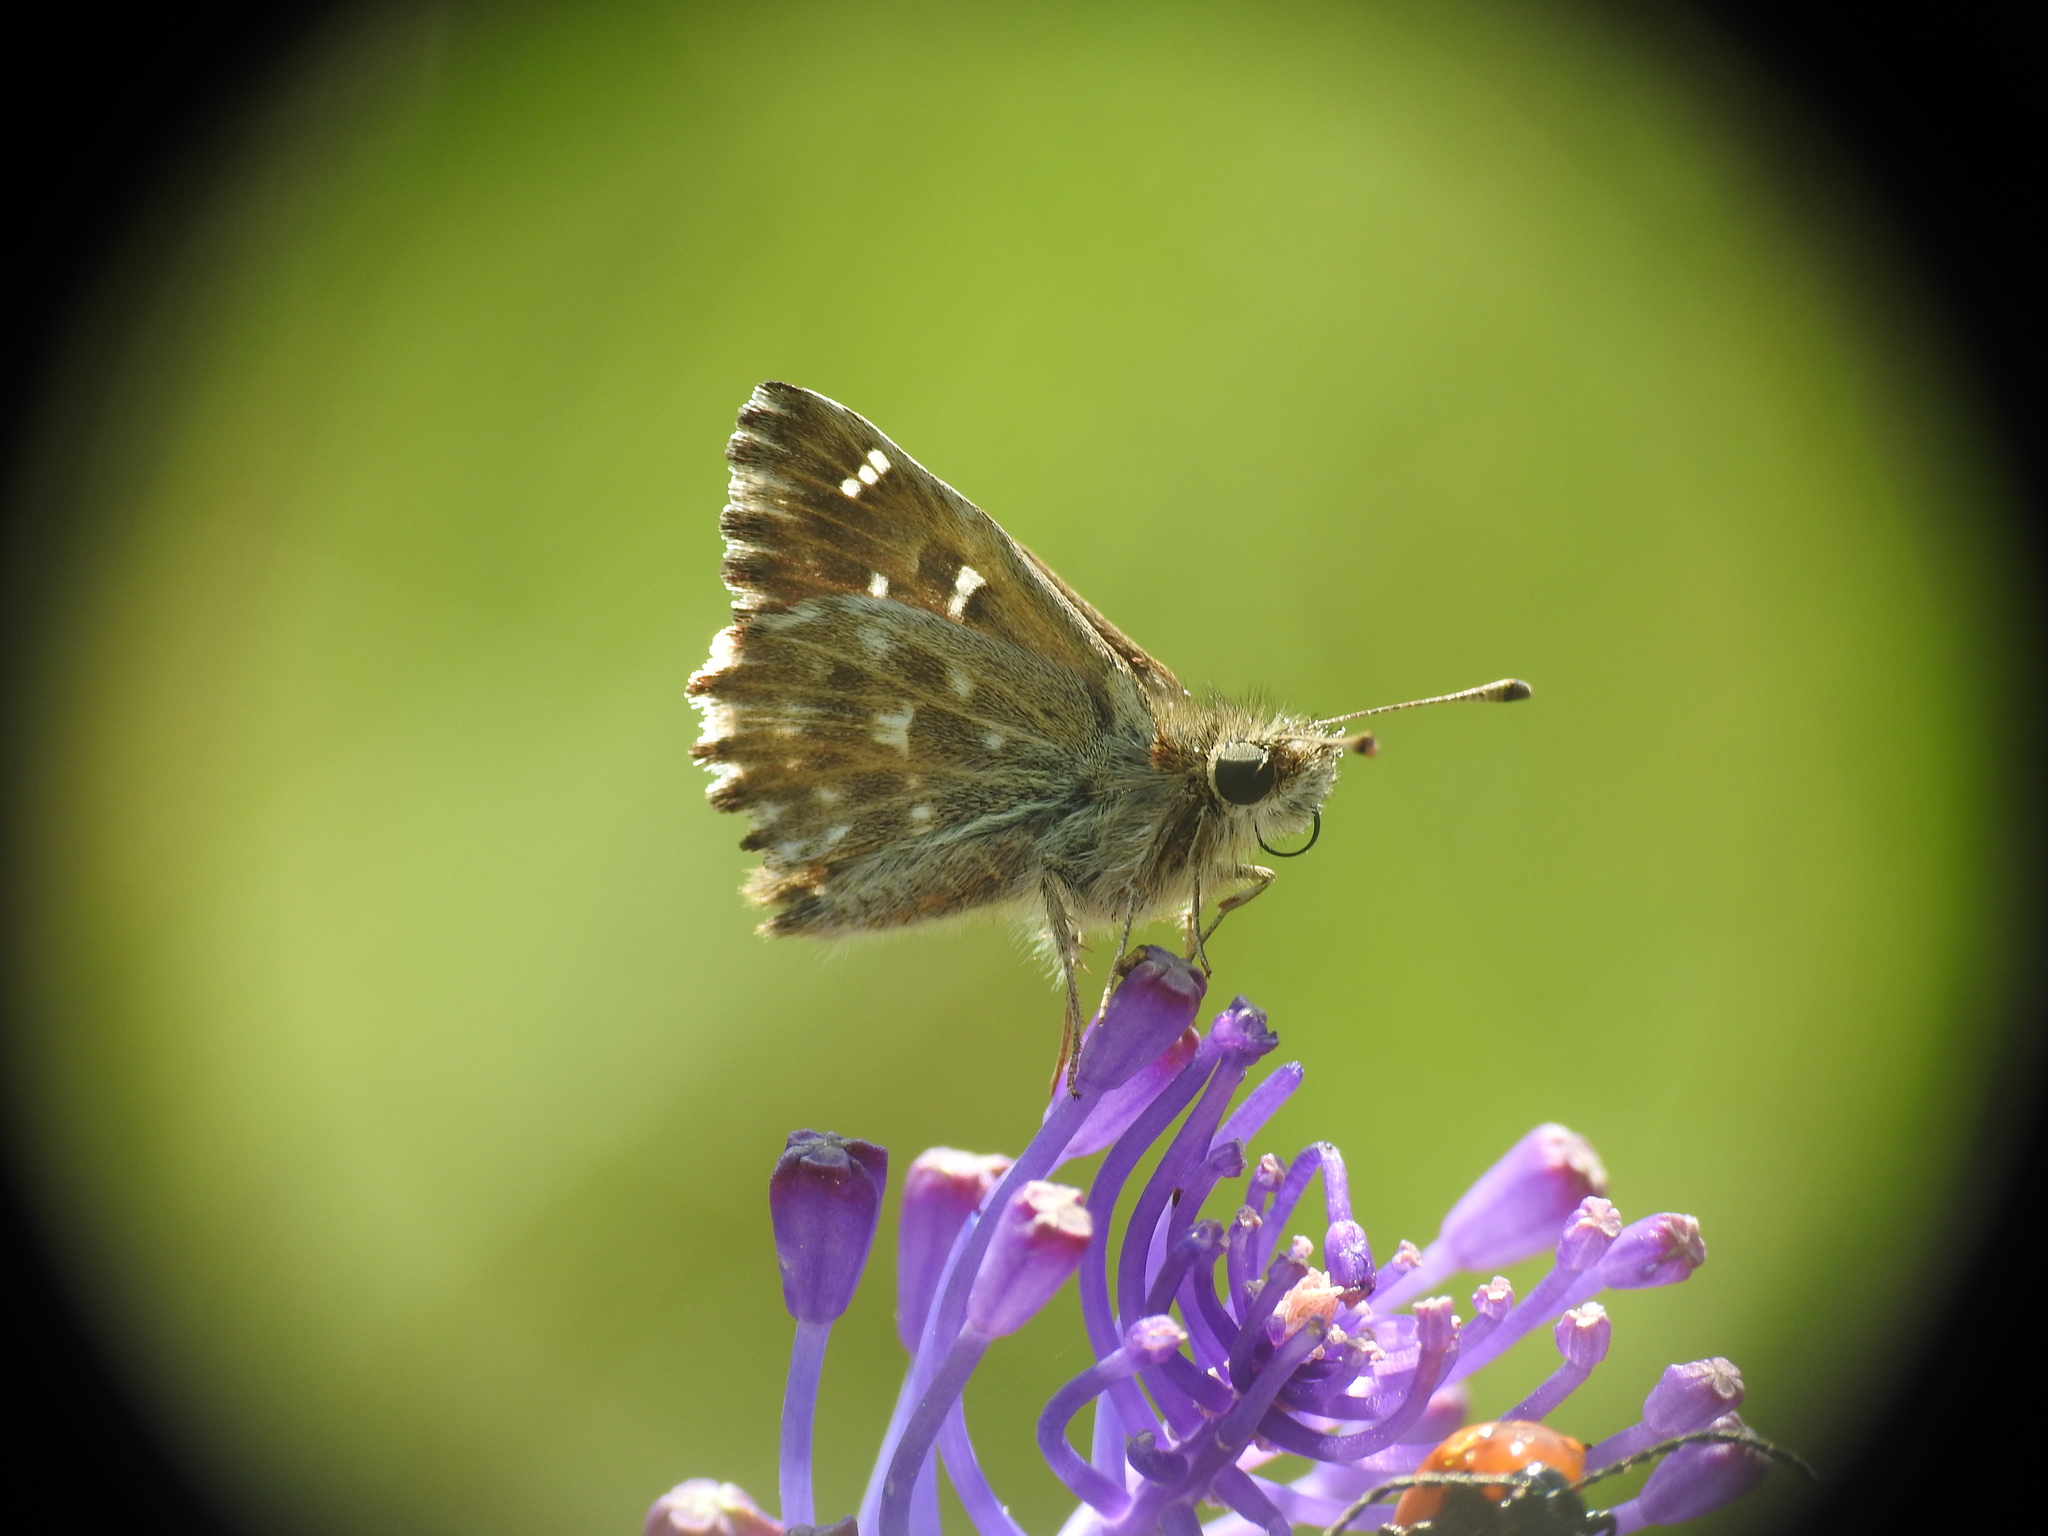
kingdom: Animalia
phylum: Arthropoda
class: Insecta
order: Lepidoptera
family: Hesperiidae
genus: Carcharodus
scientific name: Carcharodus alceae
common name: Mallow skipper
